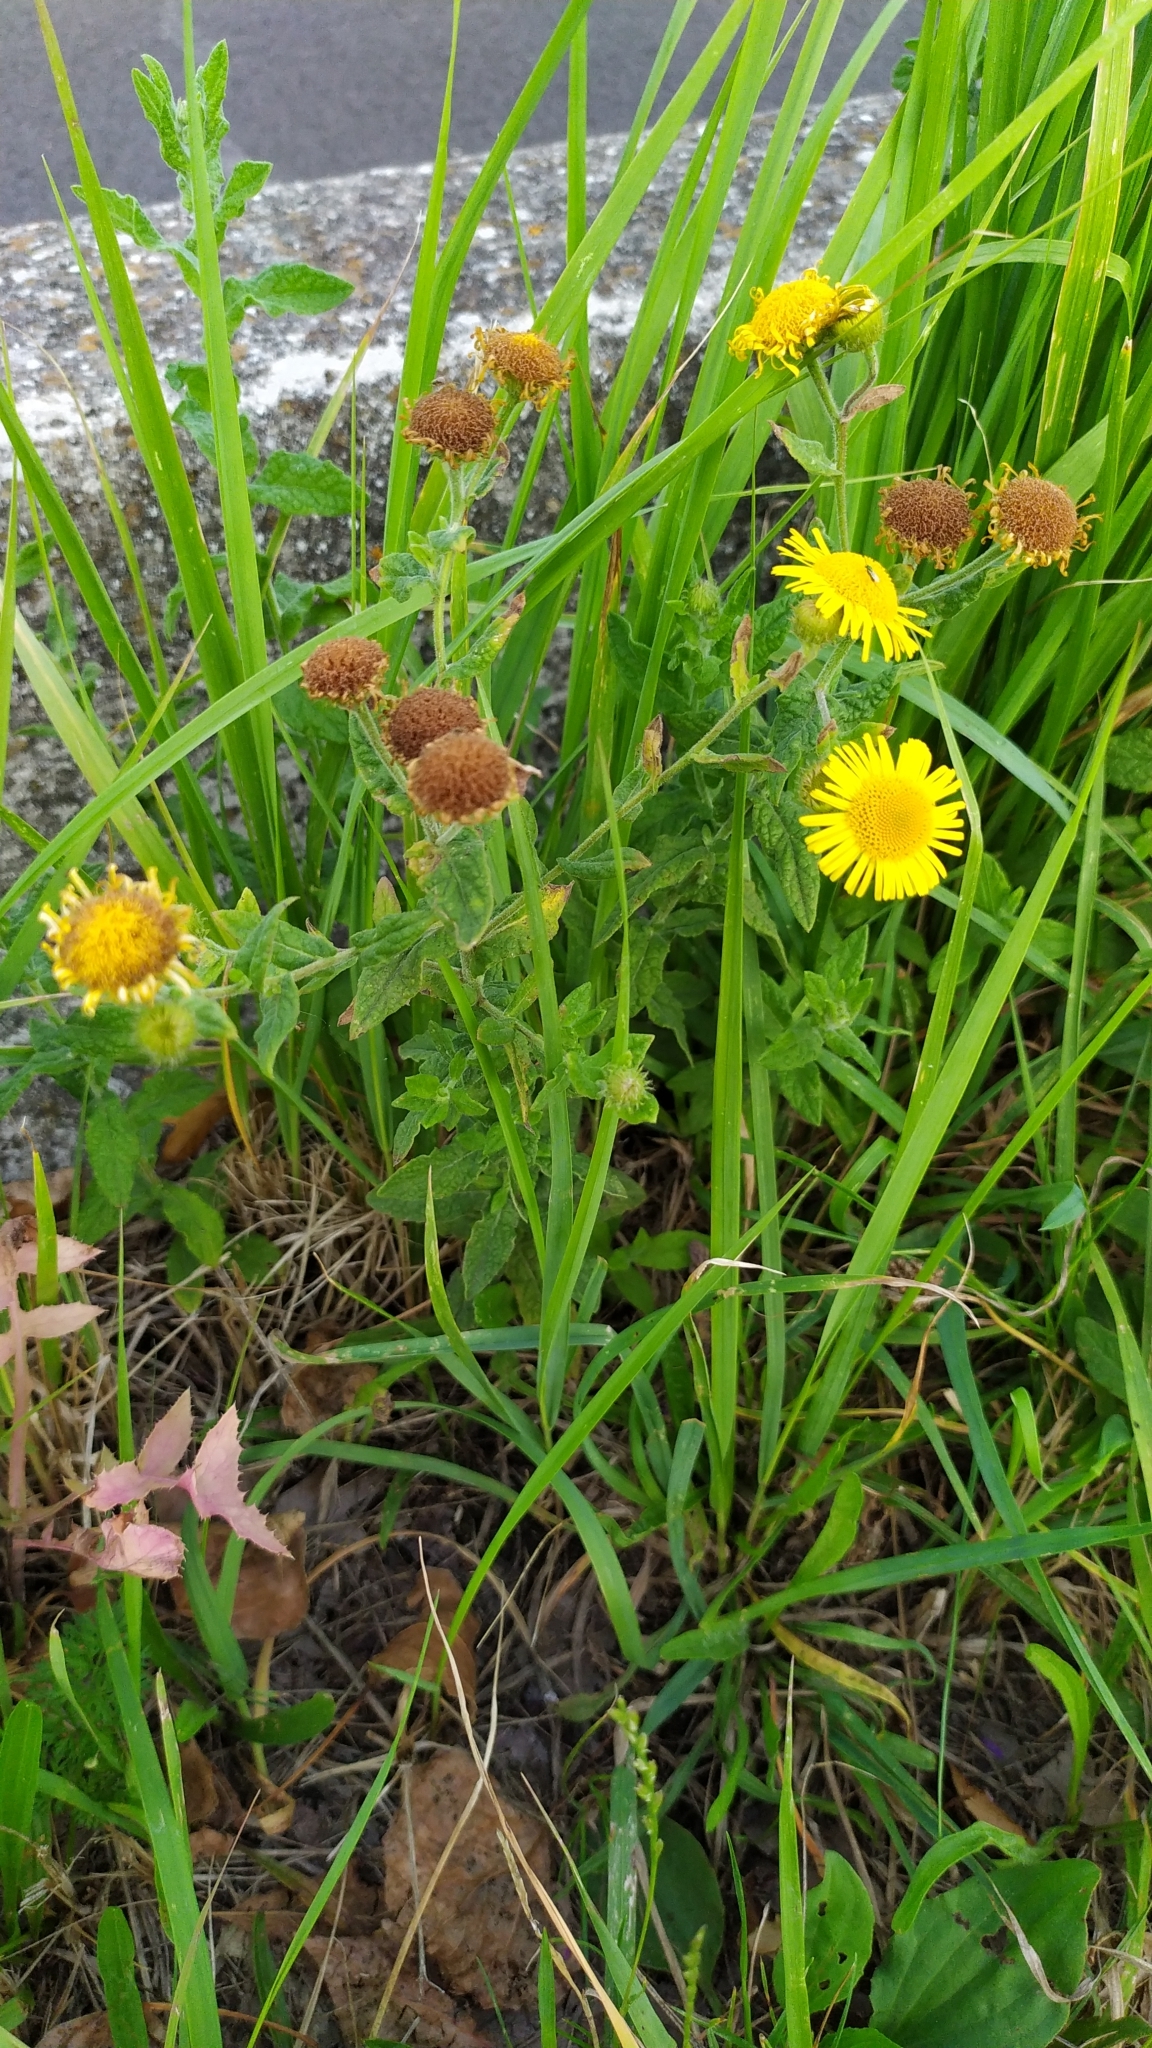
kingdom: Plantae
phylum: Tracheophyta
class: Magnoliopsida
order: Asterales
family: Asteraceae
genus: Pulicaria
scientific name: Pulicaria dysenterica
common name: Common fleabane
